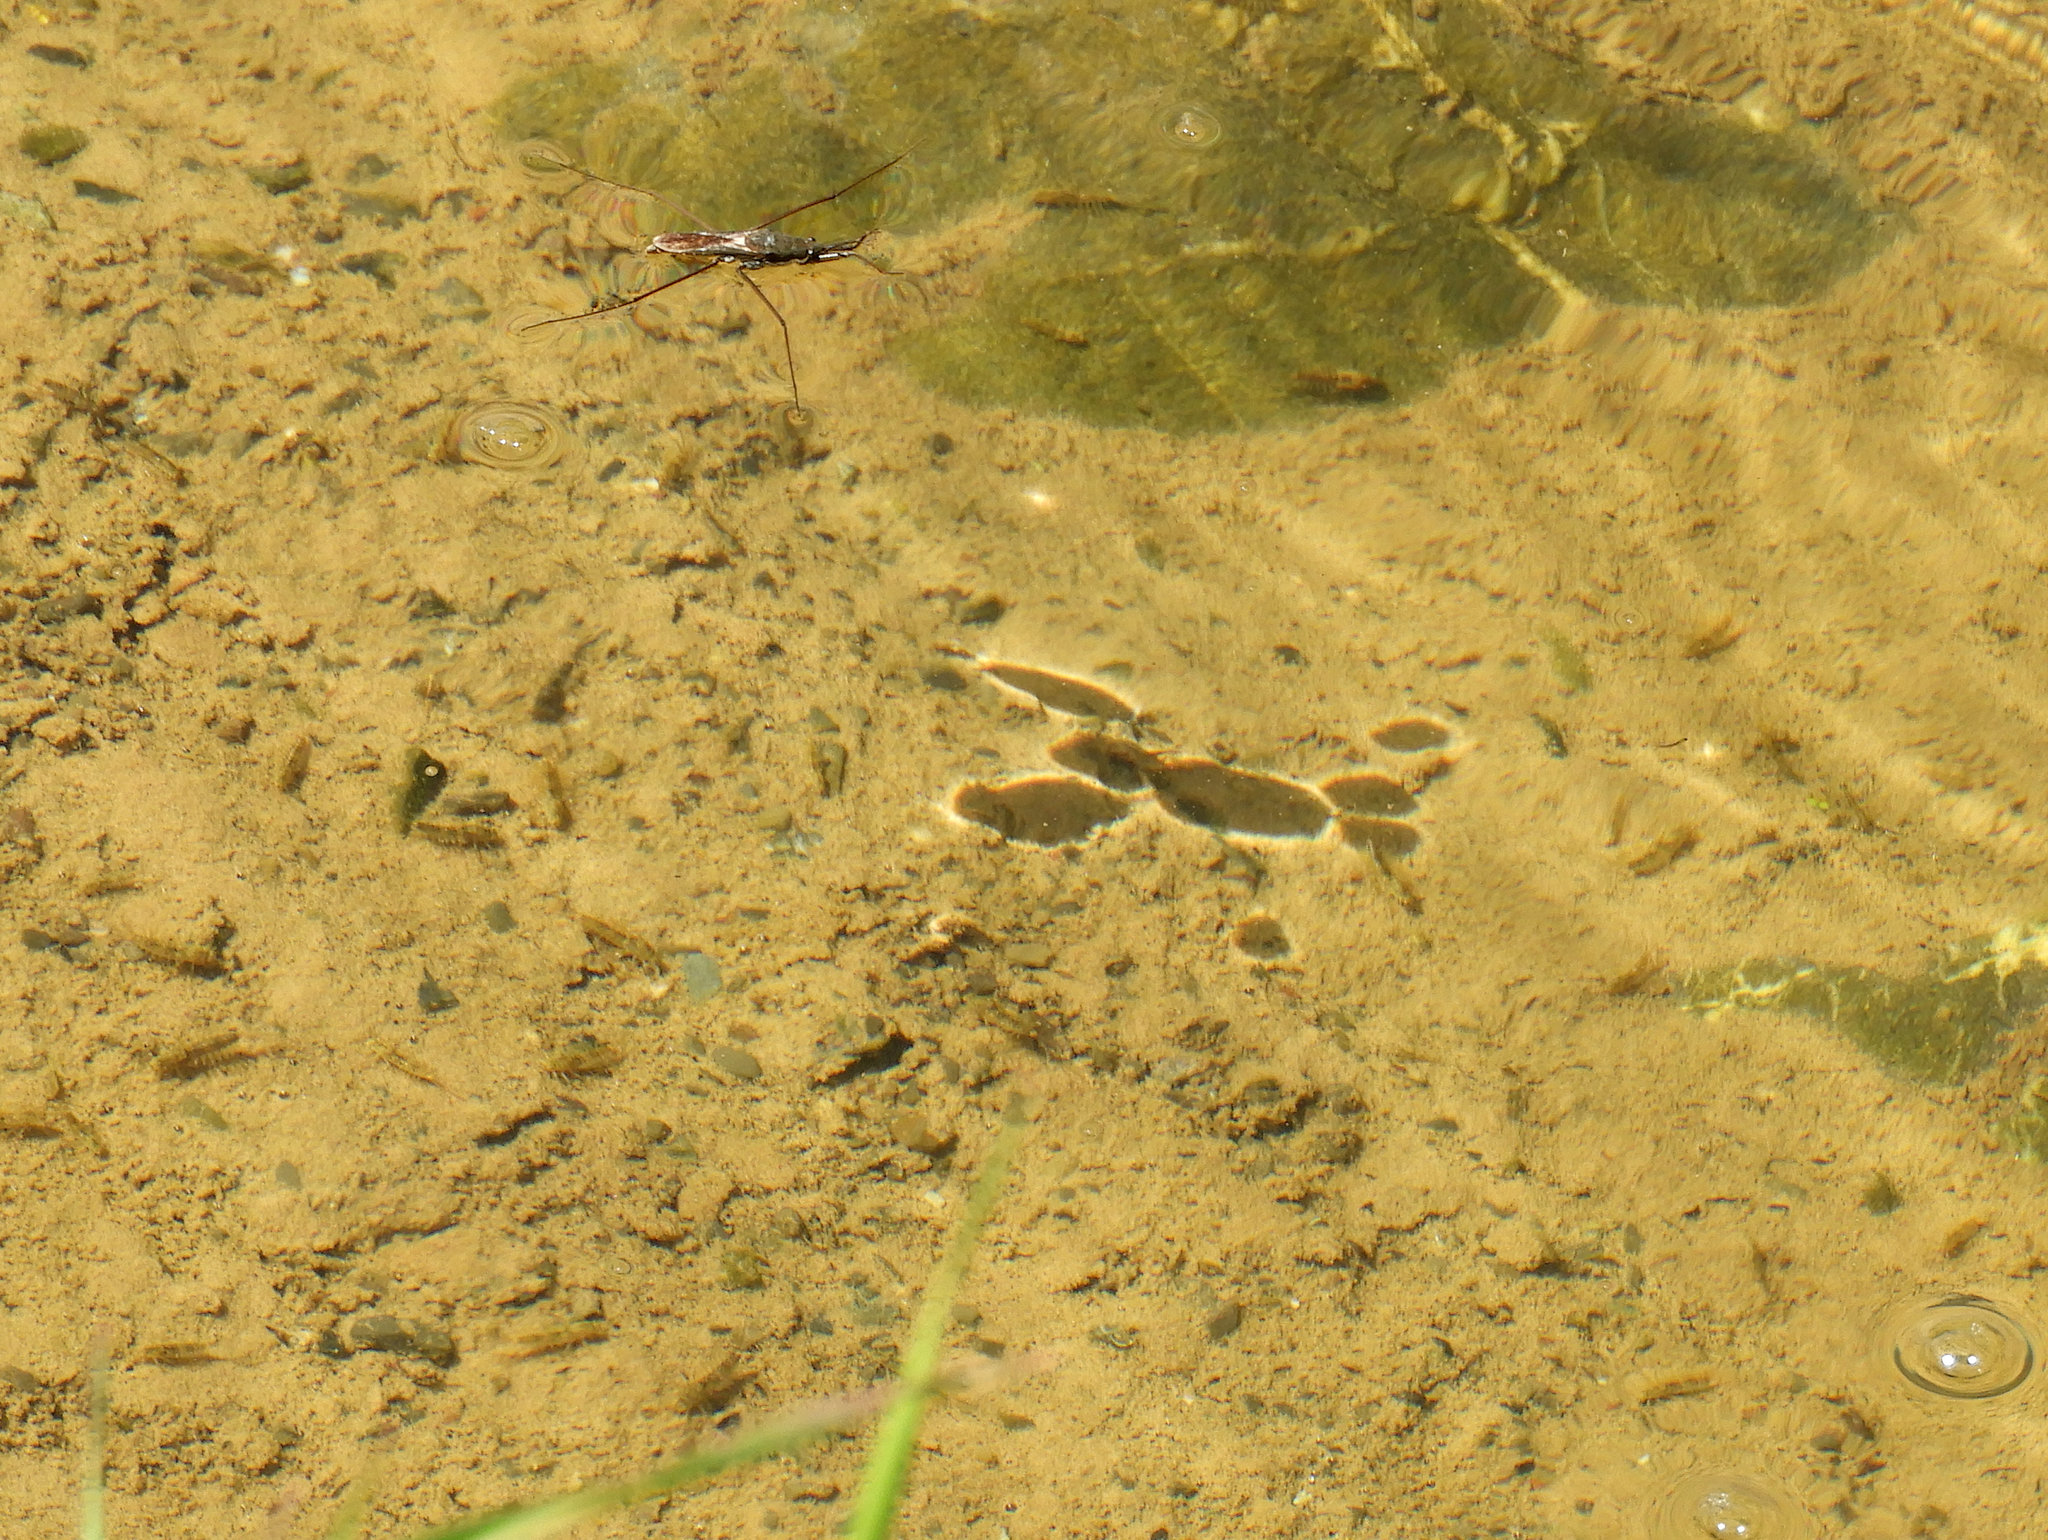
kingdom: Animalia
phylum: Arthropoda
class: Insecta
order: Hemiptera
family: Gerridae
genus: Aquarius
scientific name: Aquarius remigis
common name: Common water strider
